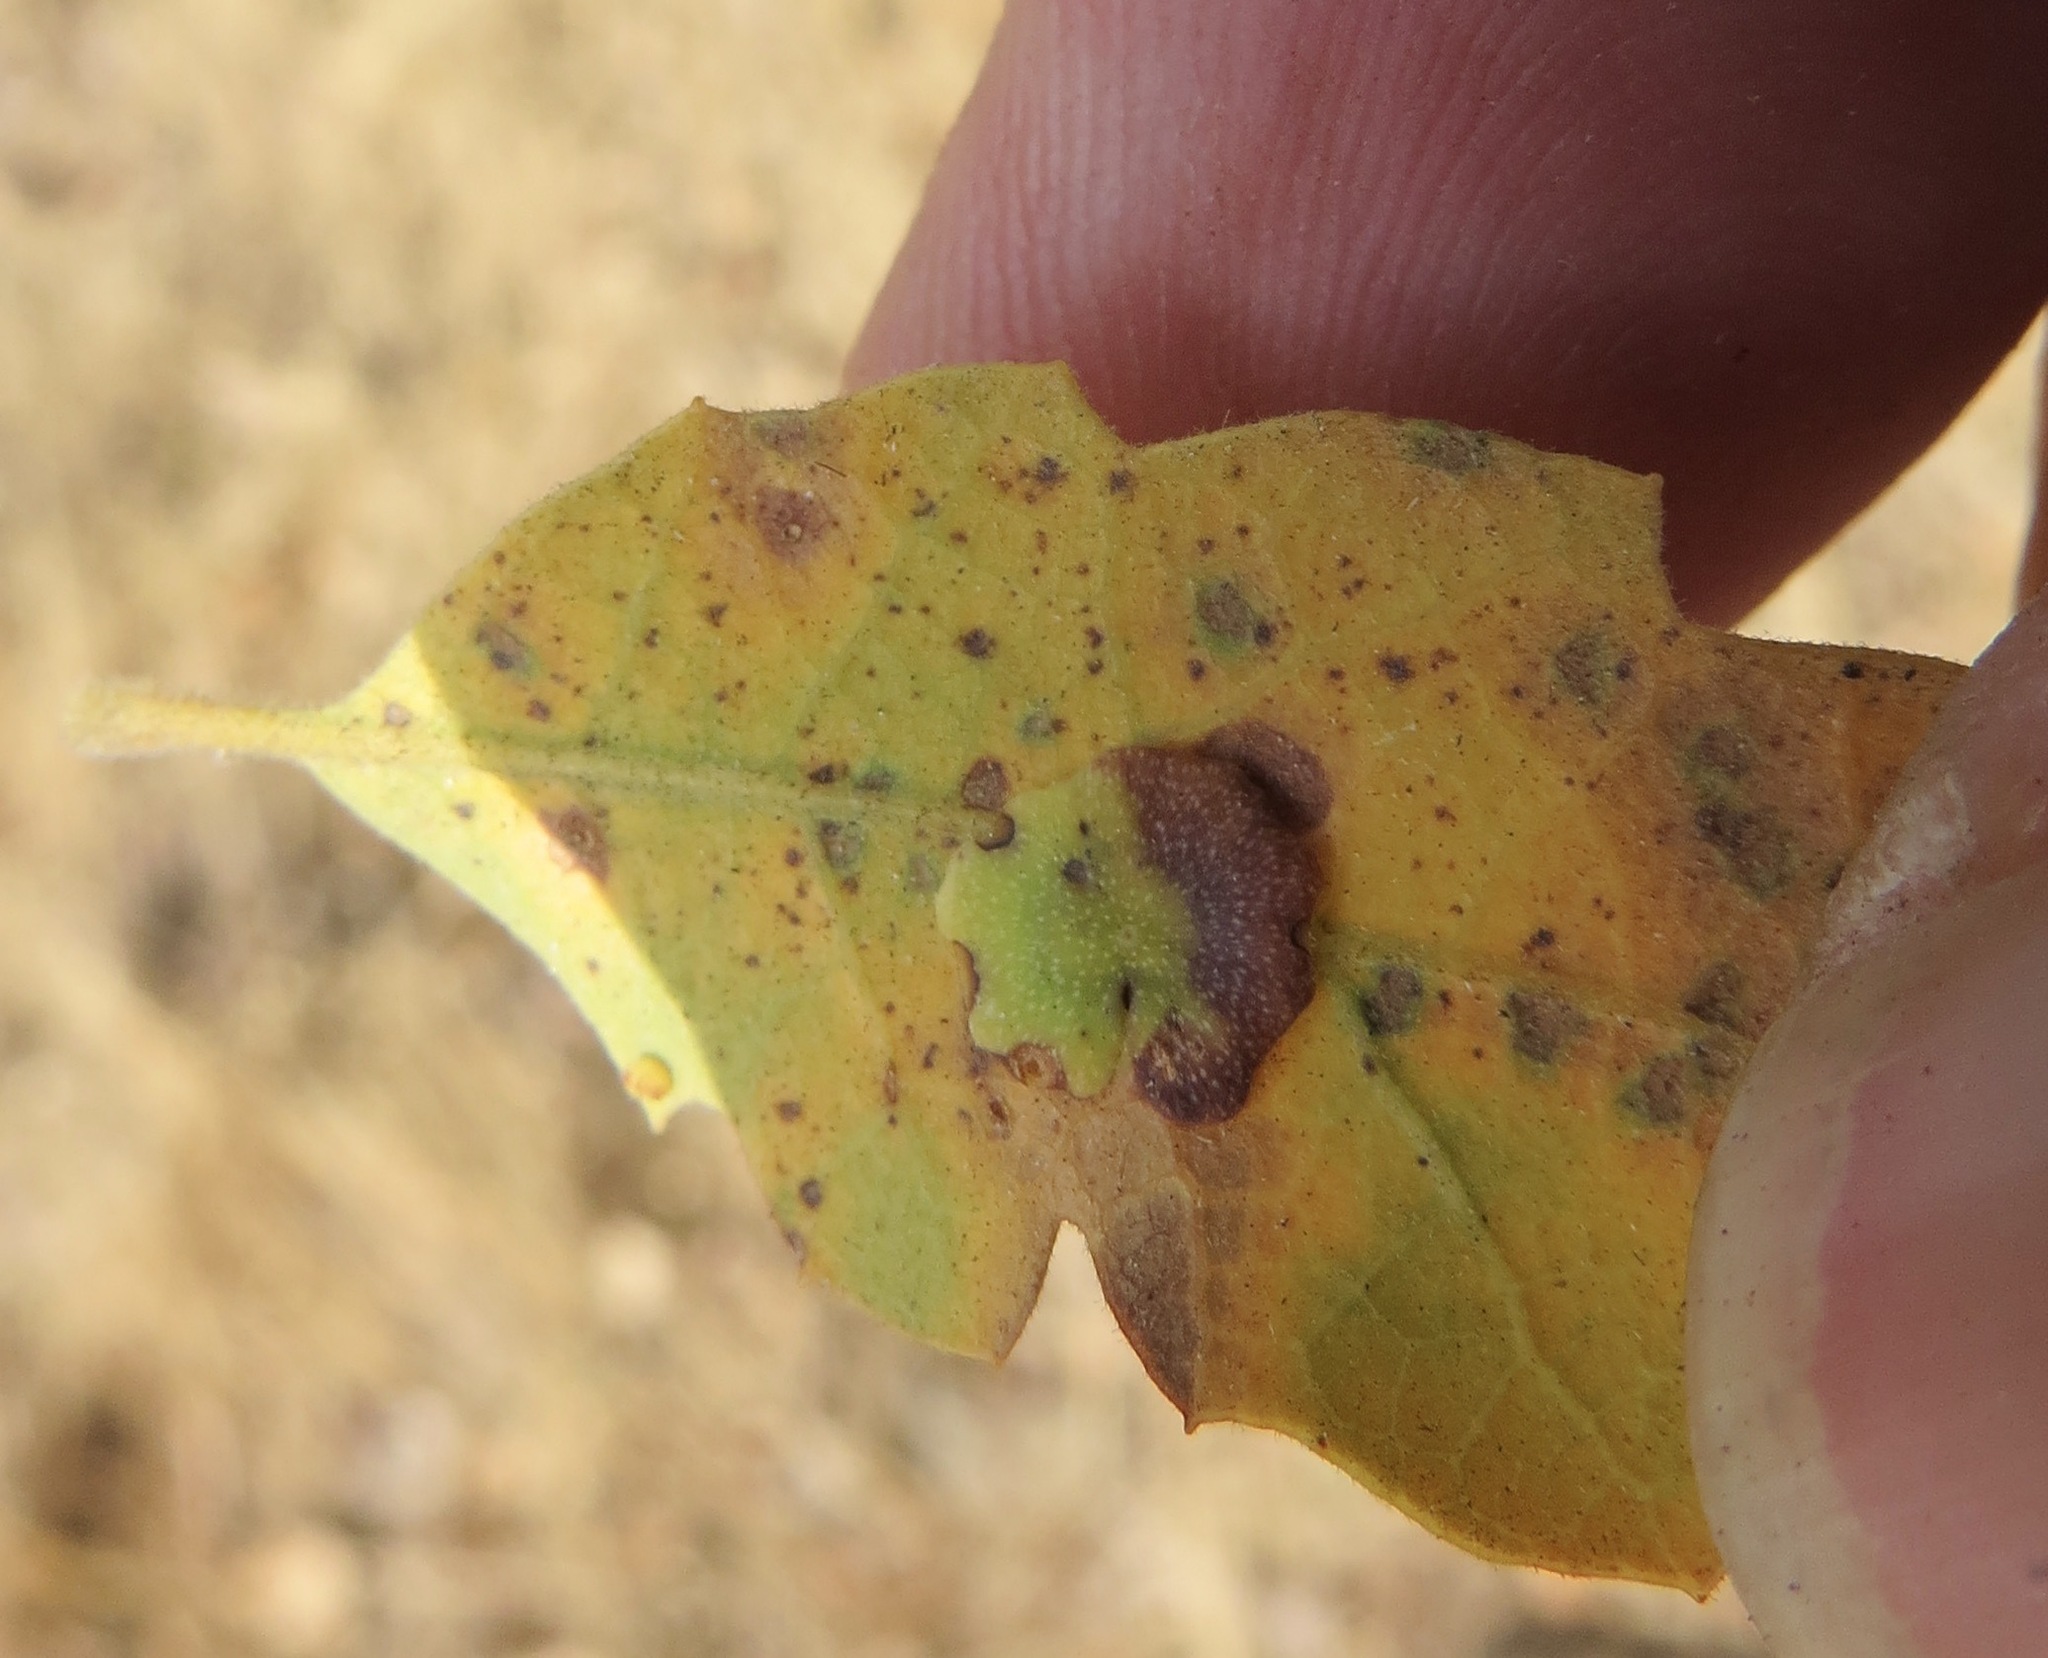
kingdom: Animalia
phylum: Arthropoda
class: Insecta
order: Hymenoptera
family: Cynipidae
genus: Andricus
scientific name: Andricus
